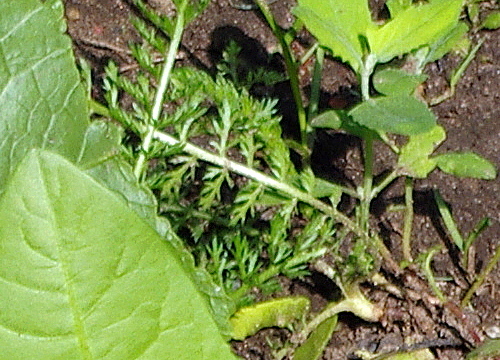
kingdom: Plantae
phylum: Tracheophyta
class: Magnoliopsida
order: Asterales
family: Asteraceae
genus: Achillea
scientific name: Achillea millefolium
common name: Yarrow
